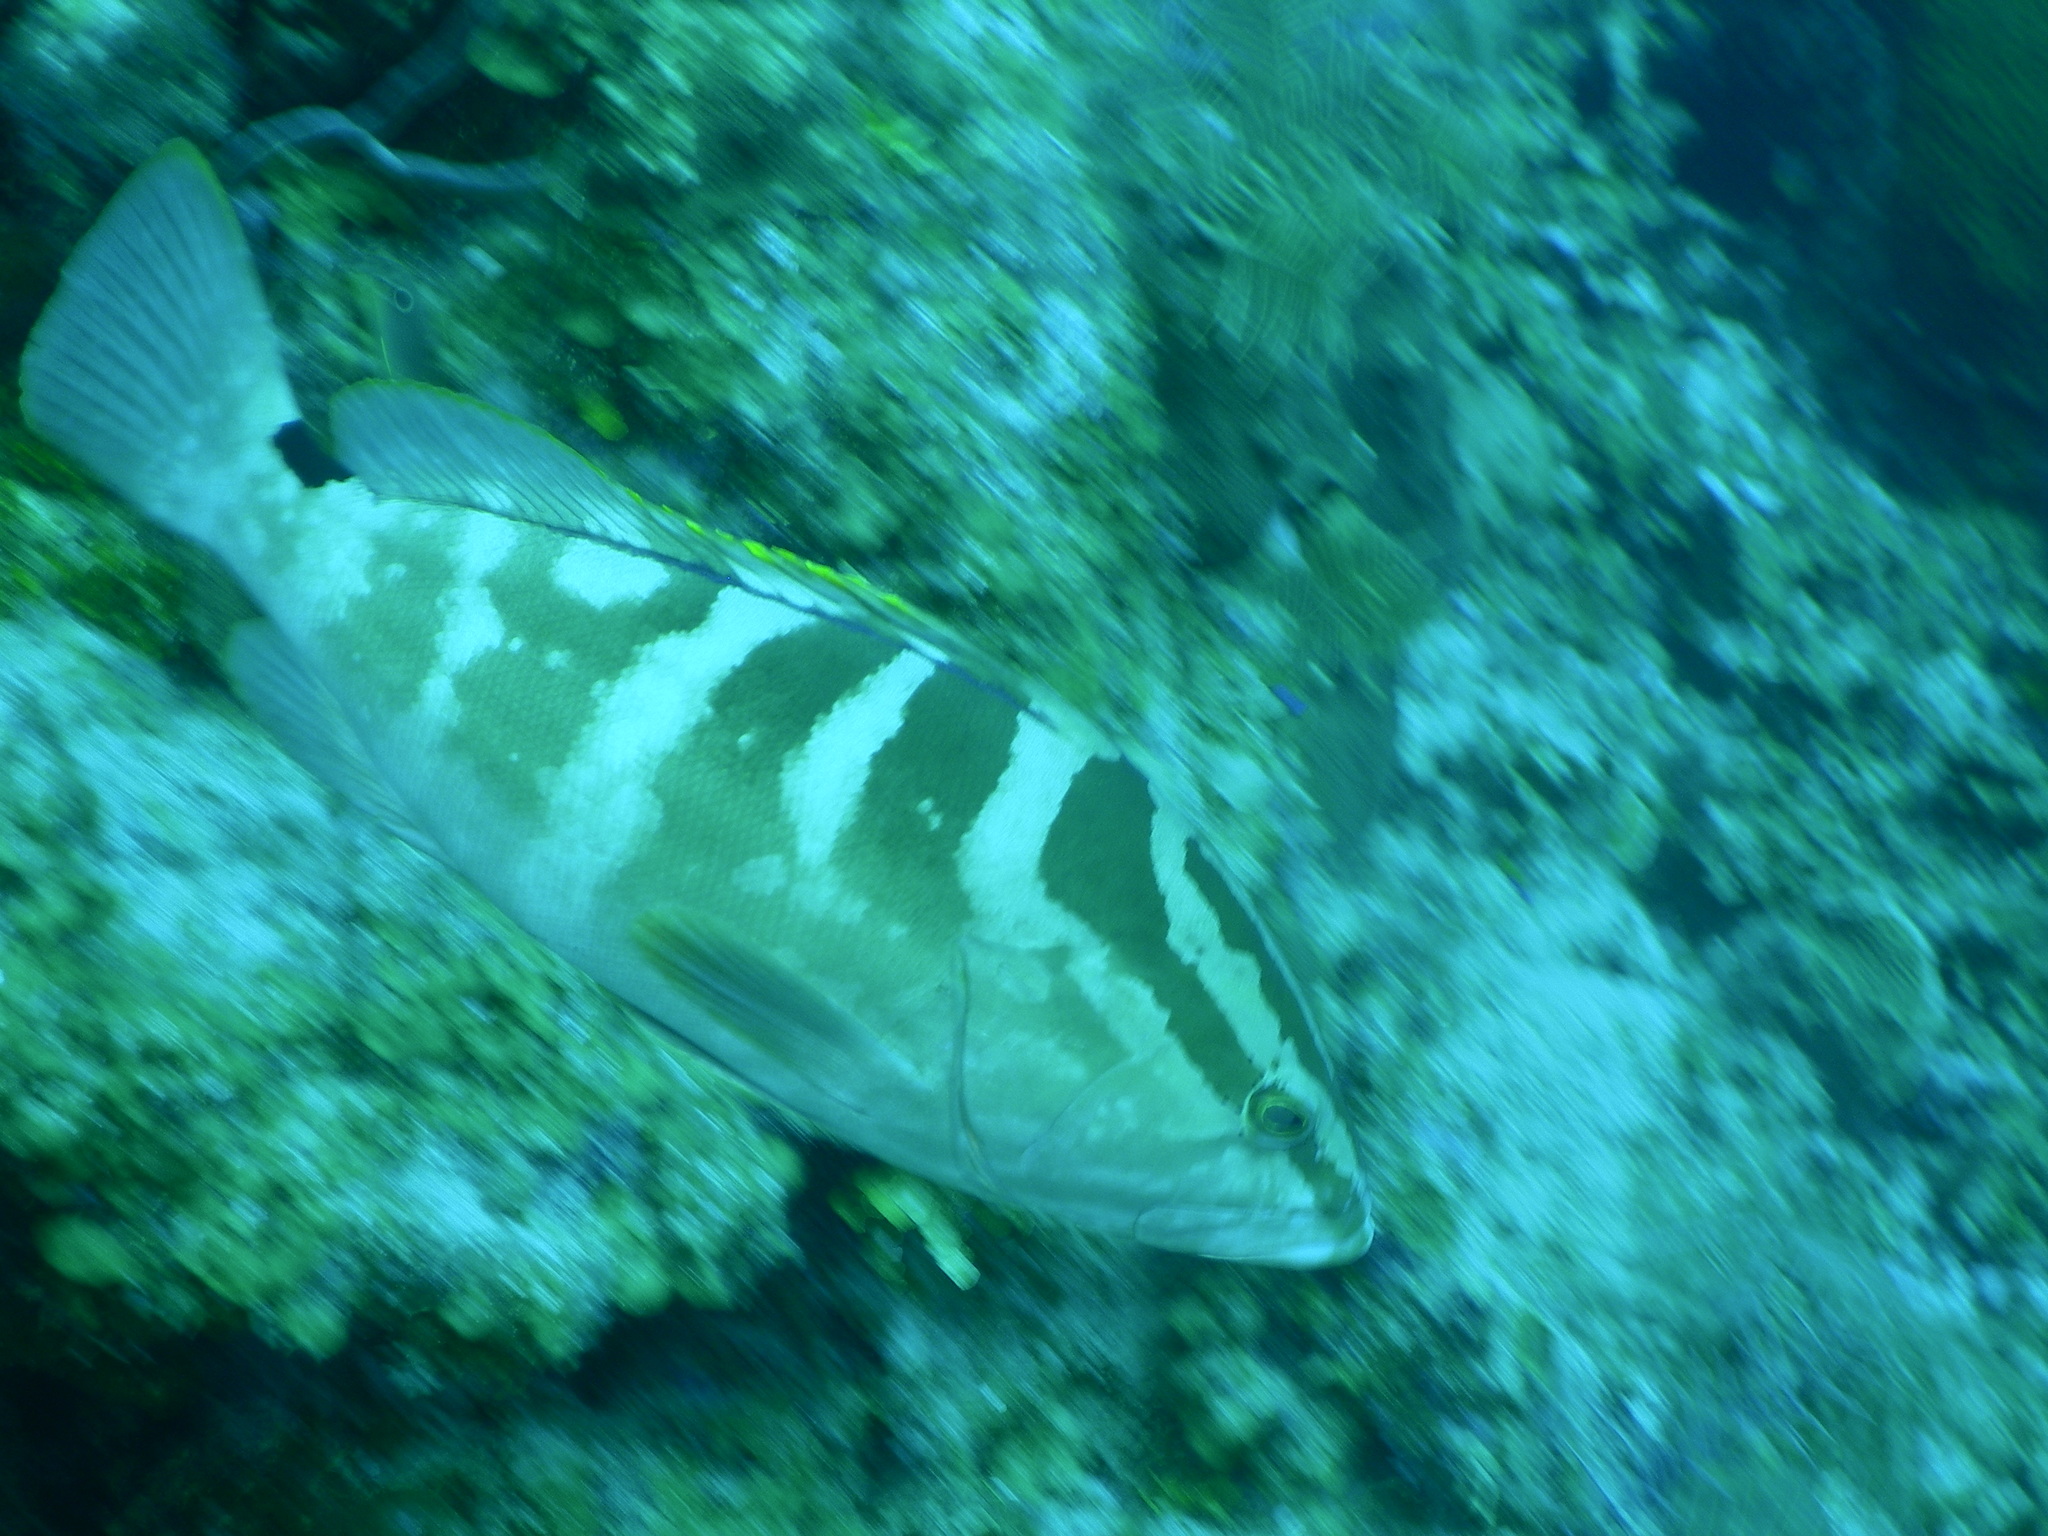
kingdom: Animalia
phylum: Chordata
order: Perciformes
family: Serranidae
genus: Epinephelus
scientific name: Epinephelus striatus
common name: Nassau grouper
